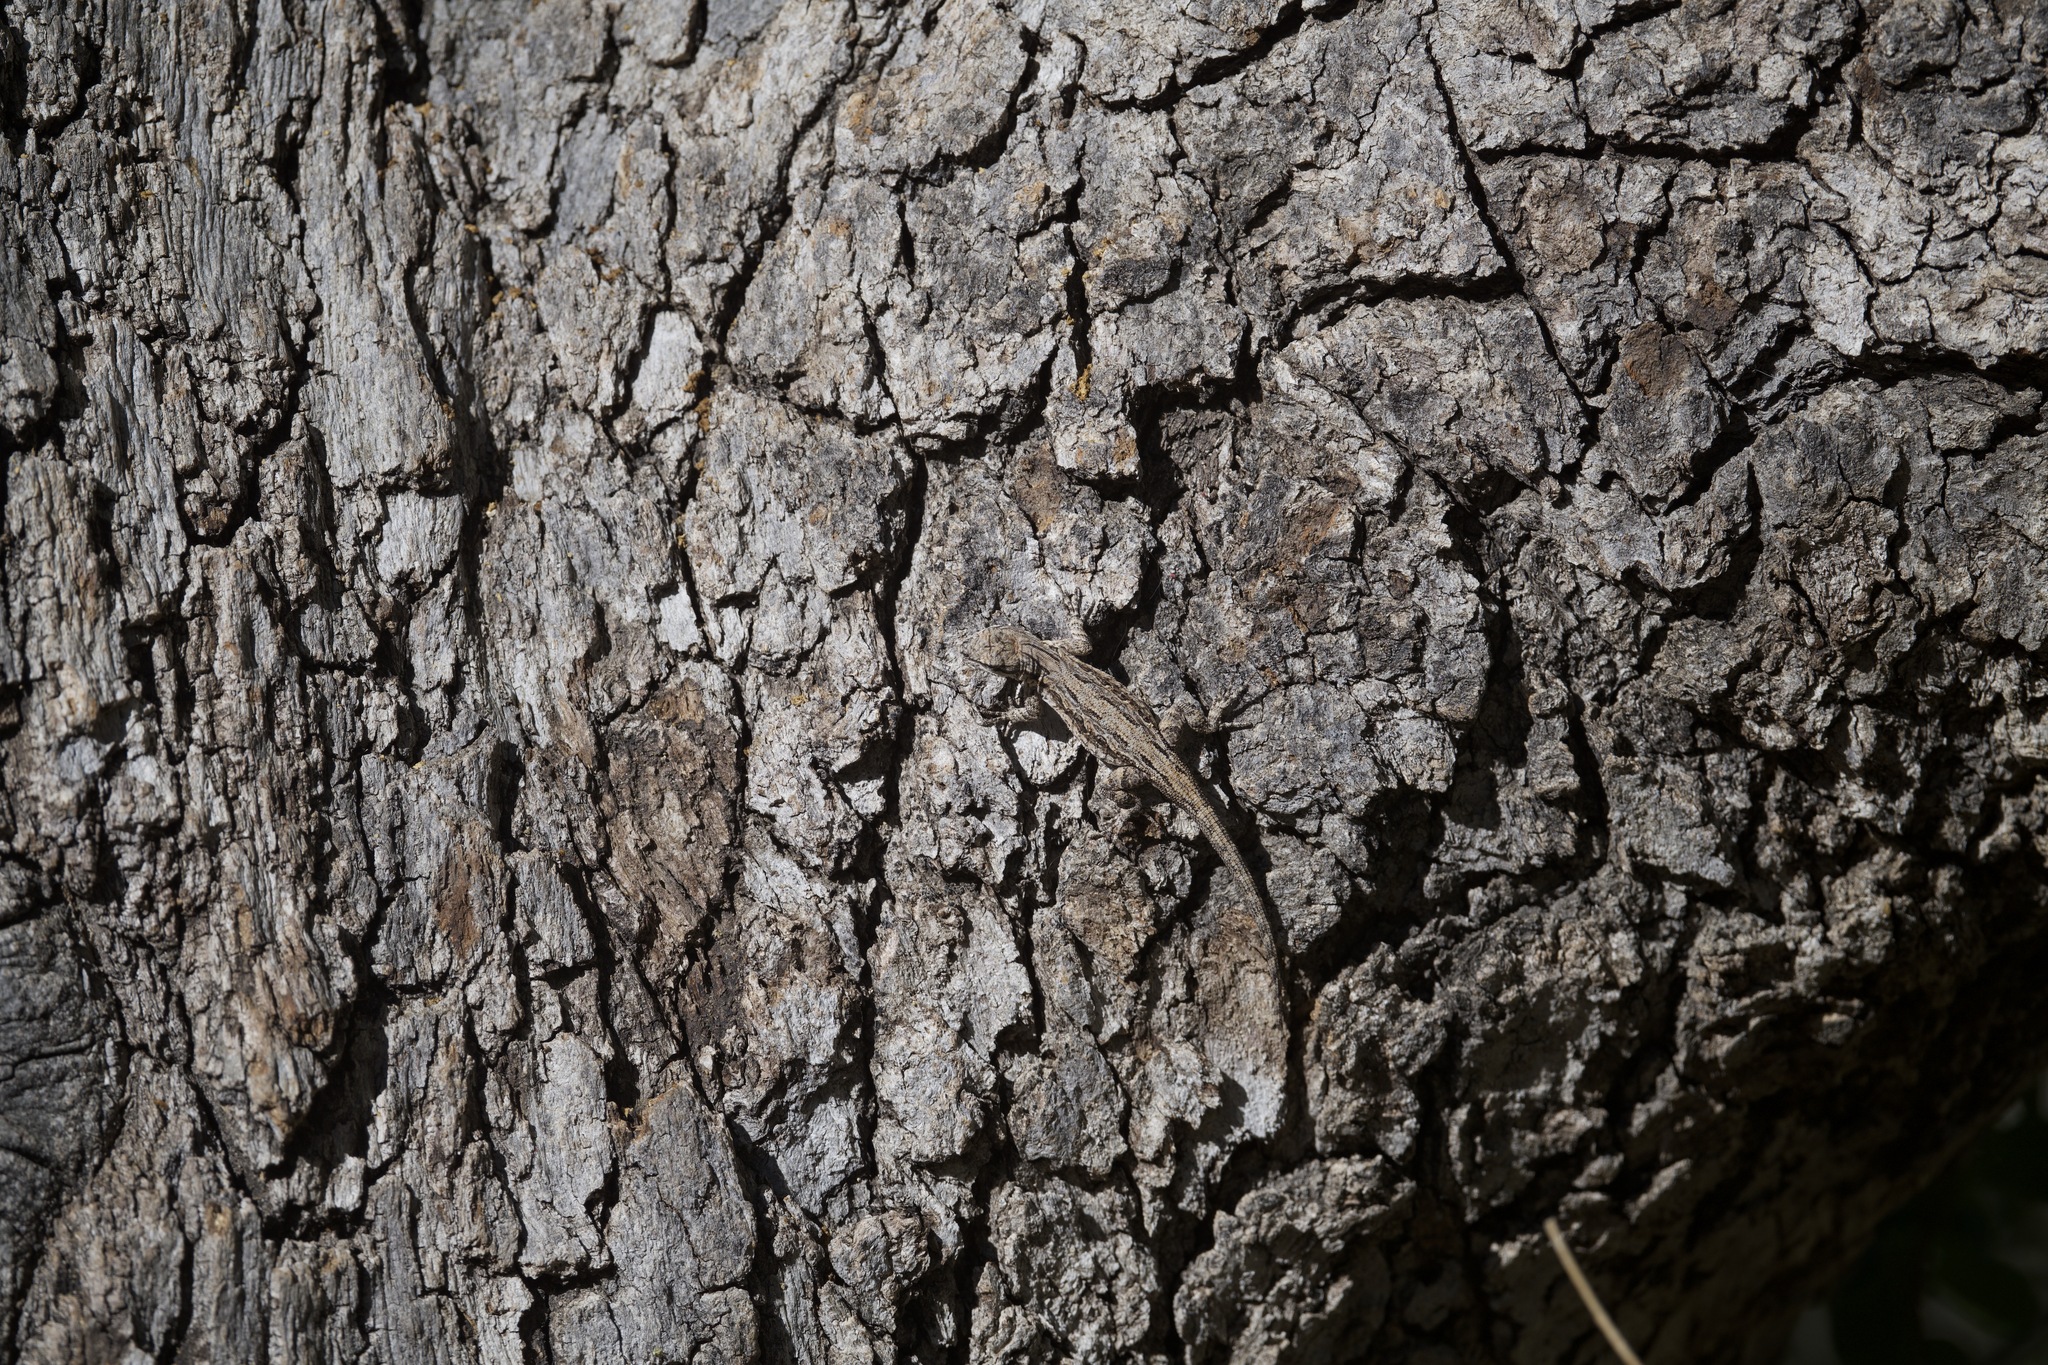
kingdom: Animalia
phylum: Chordata
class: Squamata
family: Phrynosomatidae
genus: Urosaurus
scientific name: Urosaurus ornatus
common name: Ornate tree lizard
